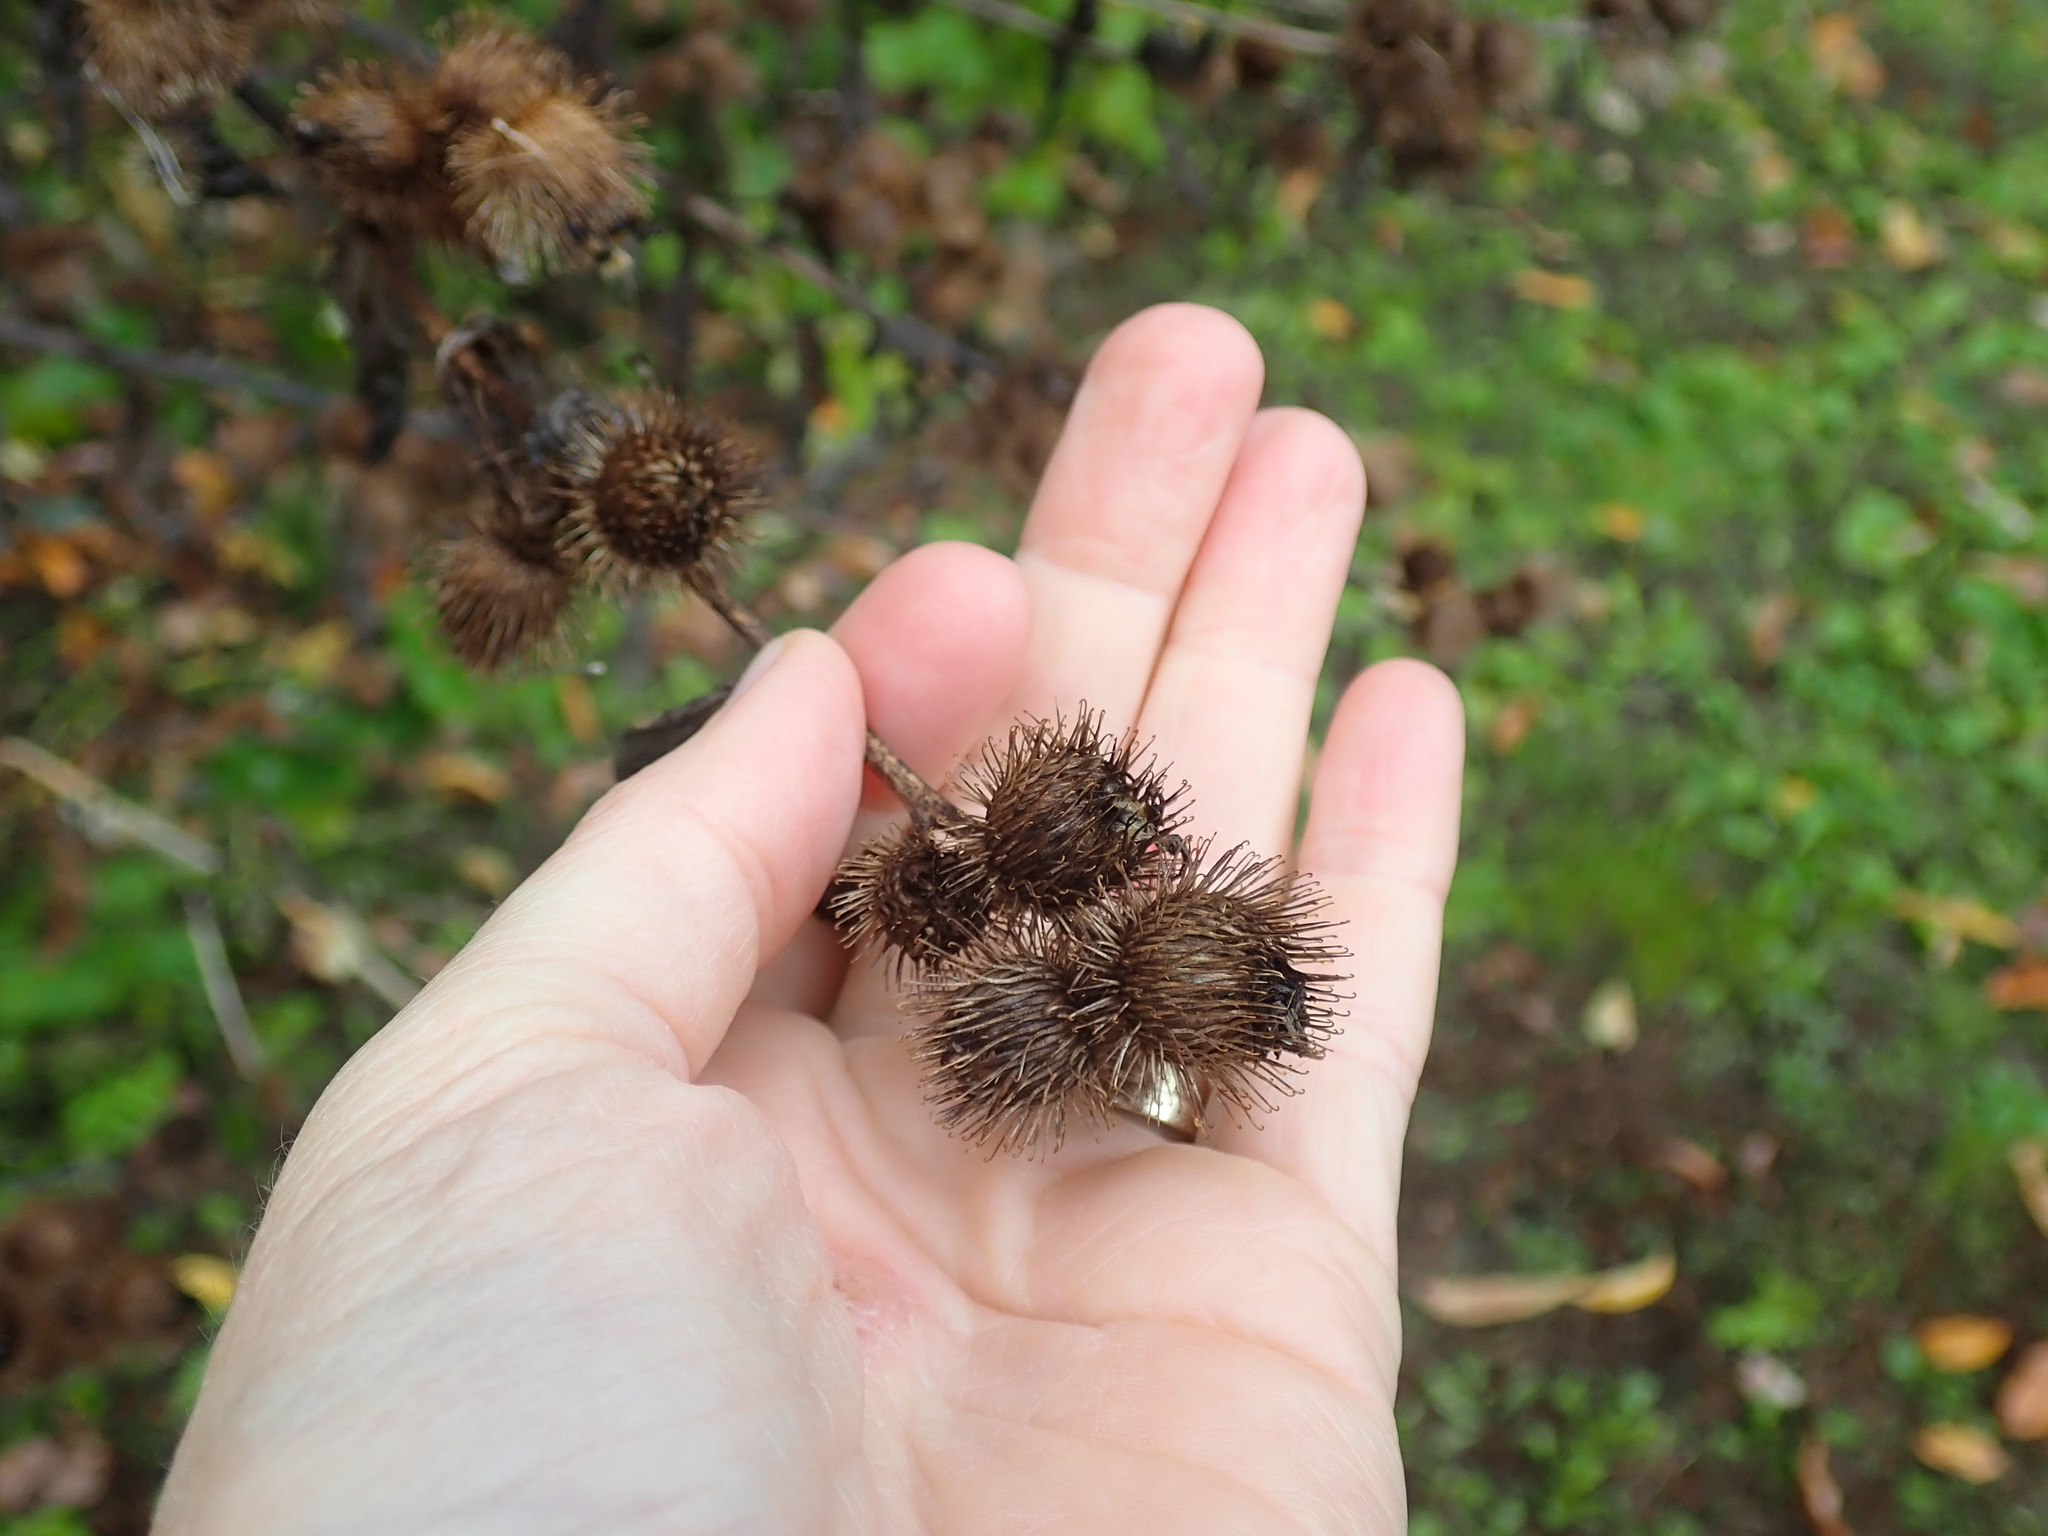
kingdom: Plantae
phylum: Tracheophyta
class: Magnoliopsida
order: Asterales
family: Asteraceae
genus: Arctium
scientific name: Arctium minus
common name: Lesser burdock
